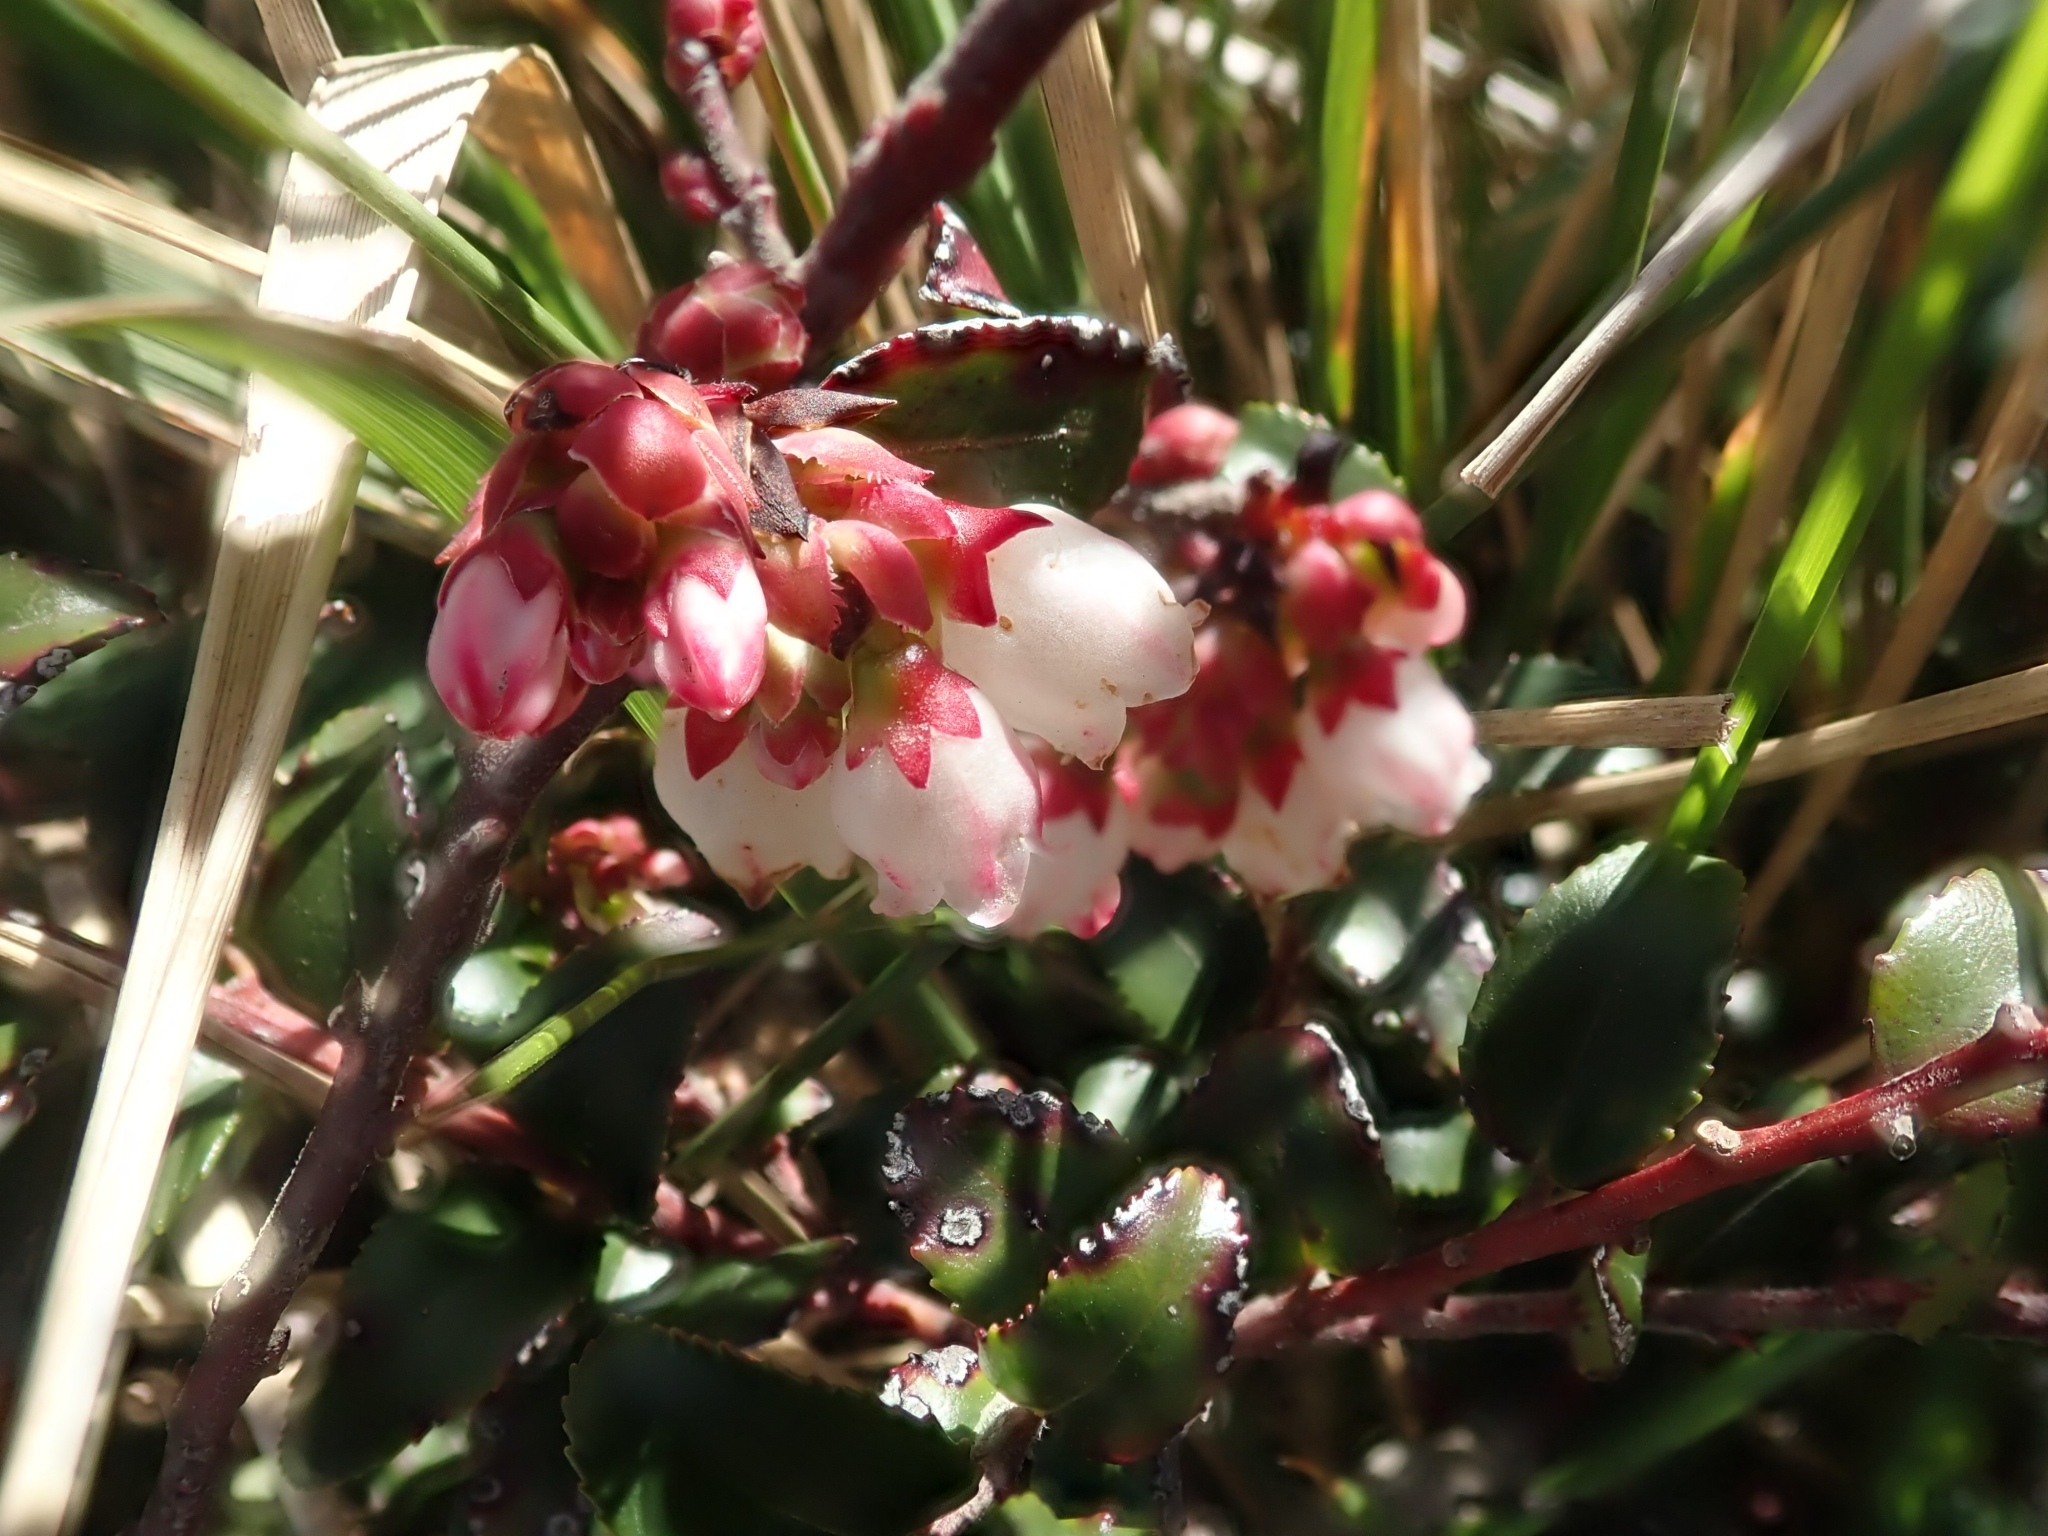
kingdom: Plantae
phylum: Tracheophyta
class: Magnoliopsida
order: Ericales
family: Ericaceae
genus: Vaccinium
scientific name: Vaccinium ovatum
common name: California-huckleberry
